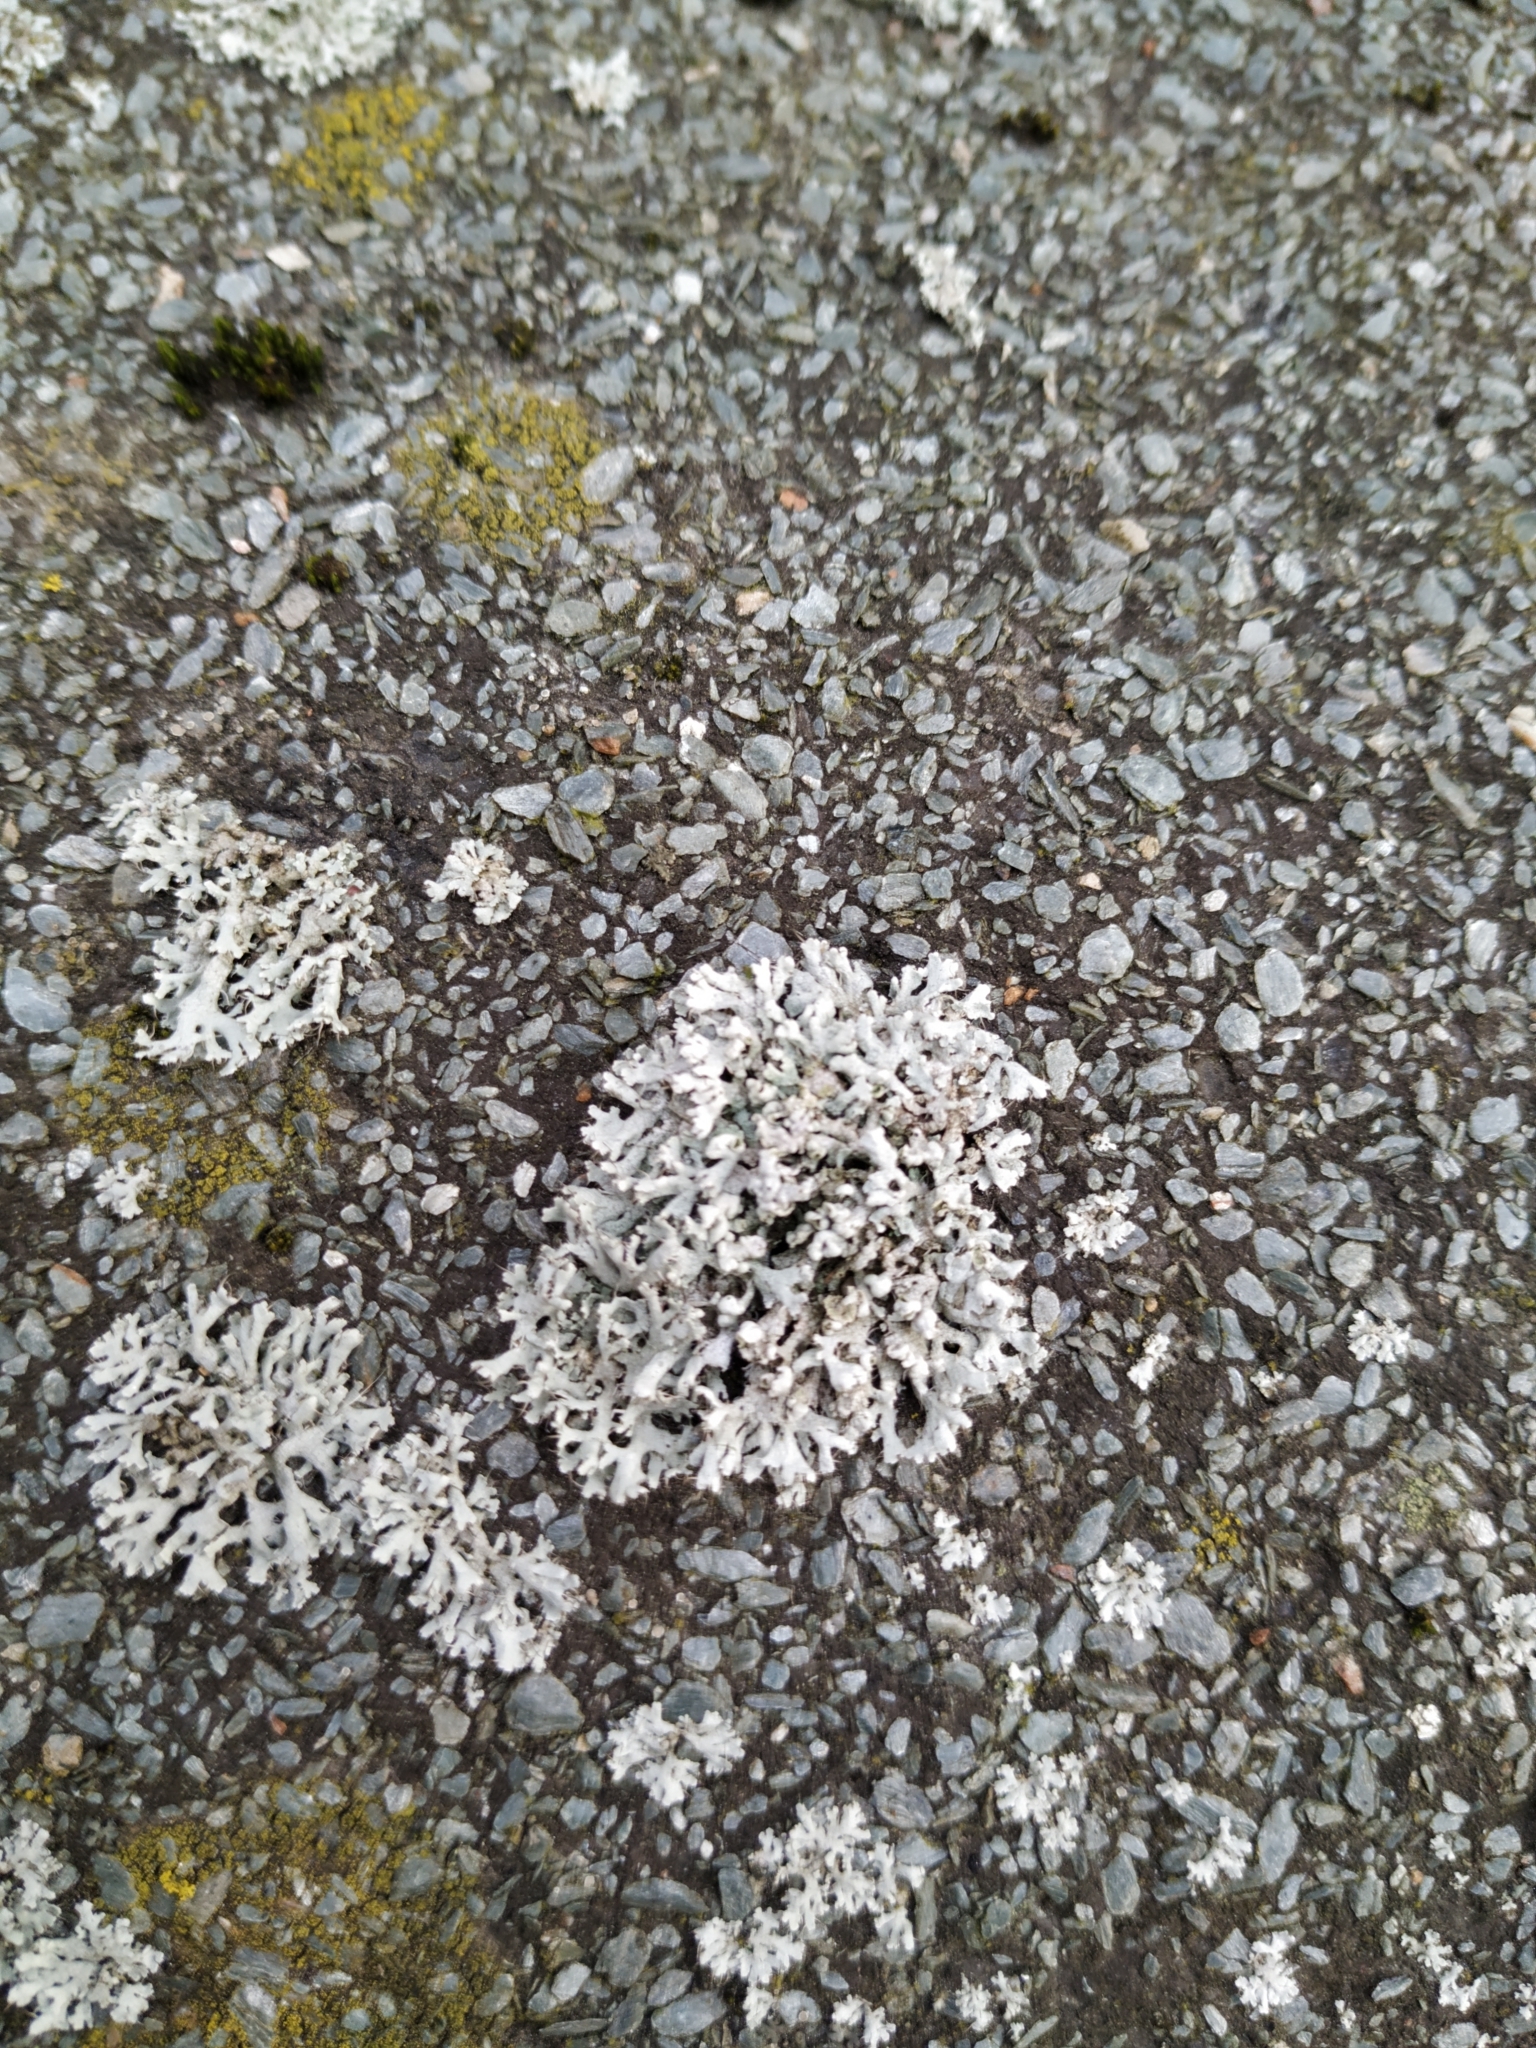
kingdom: Fungi
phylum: Ascomycota
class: Lecanoromycetes
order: Caliciales
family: Physciaceae
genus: Physcia
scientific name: Physcia adscendens
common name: Hooded rosette lichen
